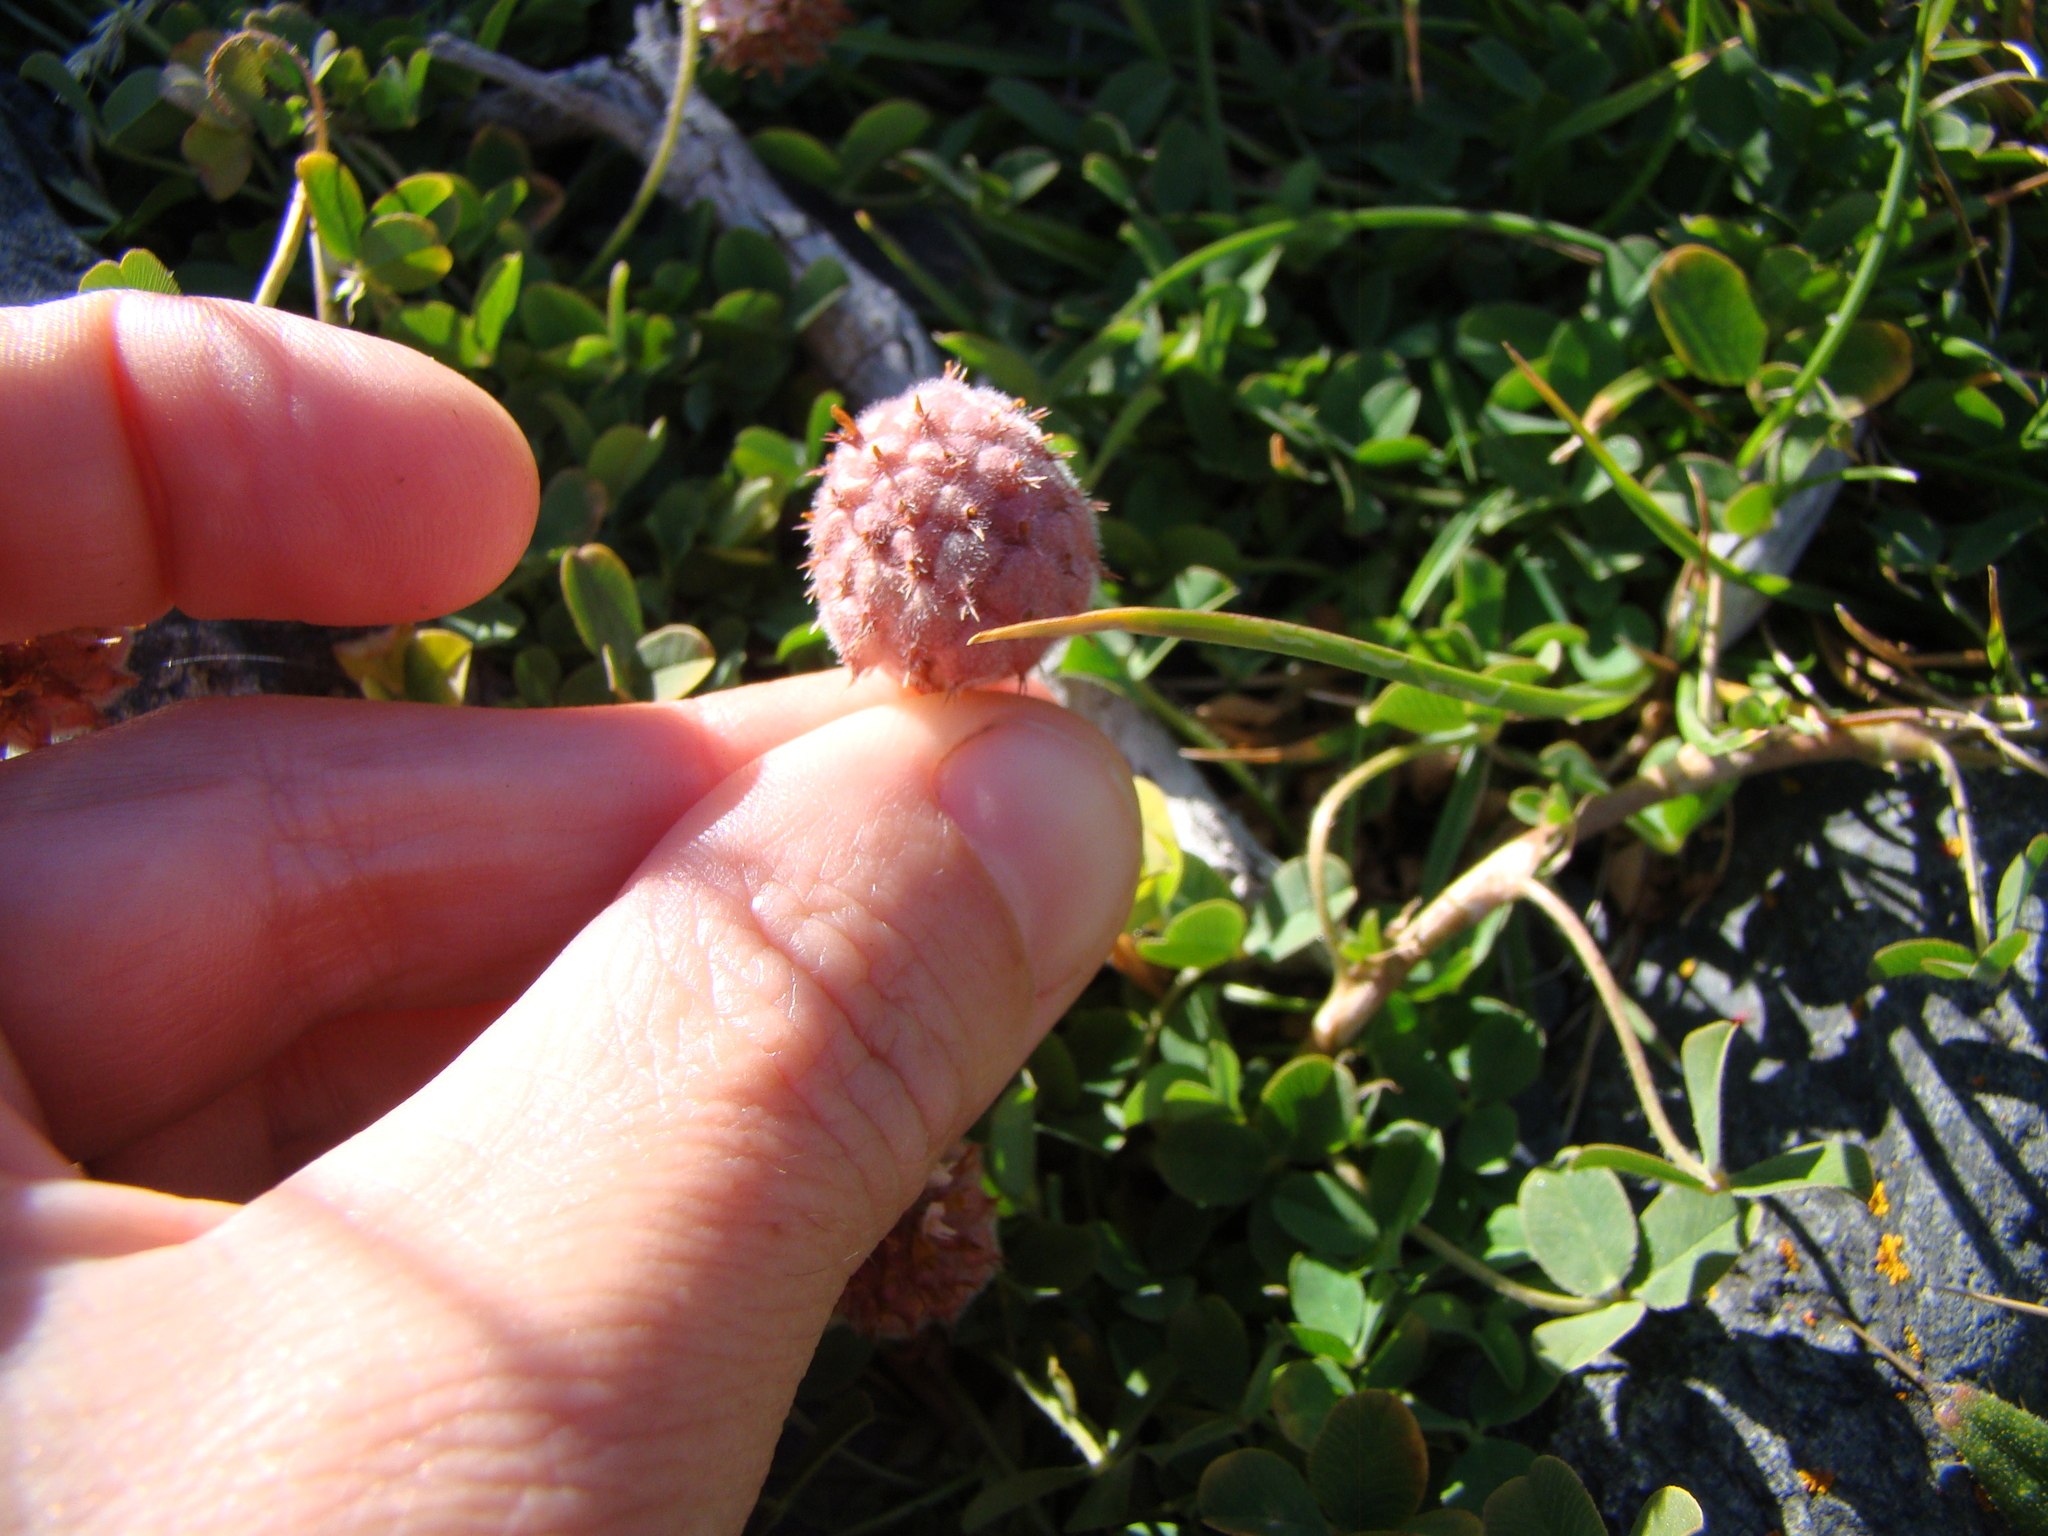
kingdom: Plantae
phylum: Tracheophyta
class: Magnoliopsida
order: Fabales
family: Fabaceae
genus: Trifolium
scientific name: Trifolium fragiferum
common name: Strawberry clover
